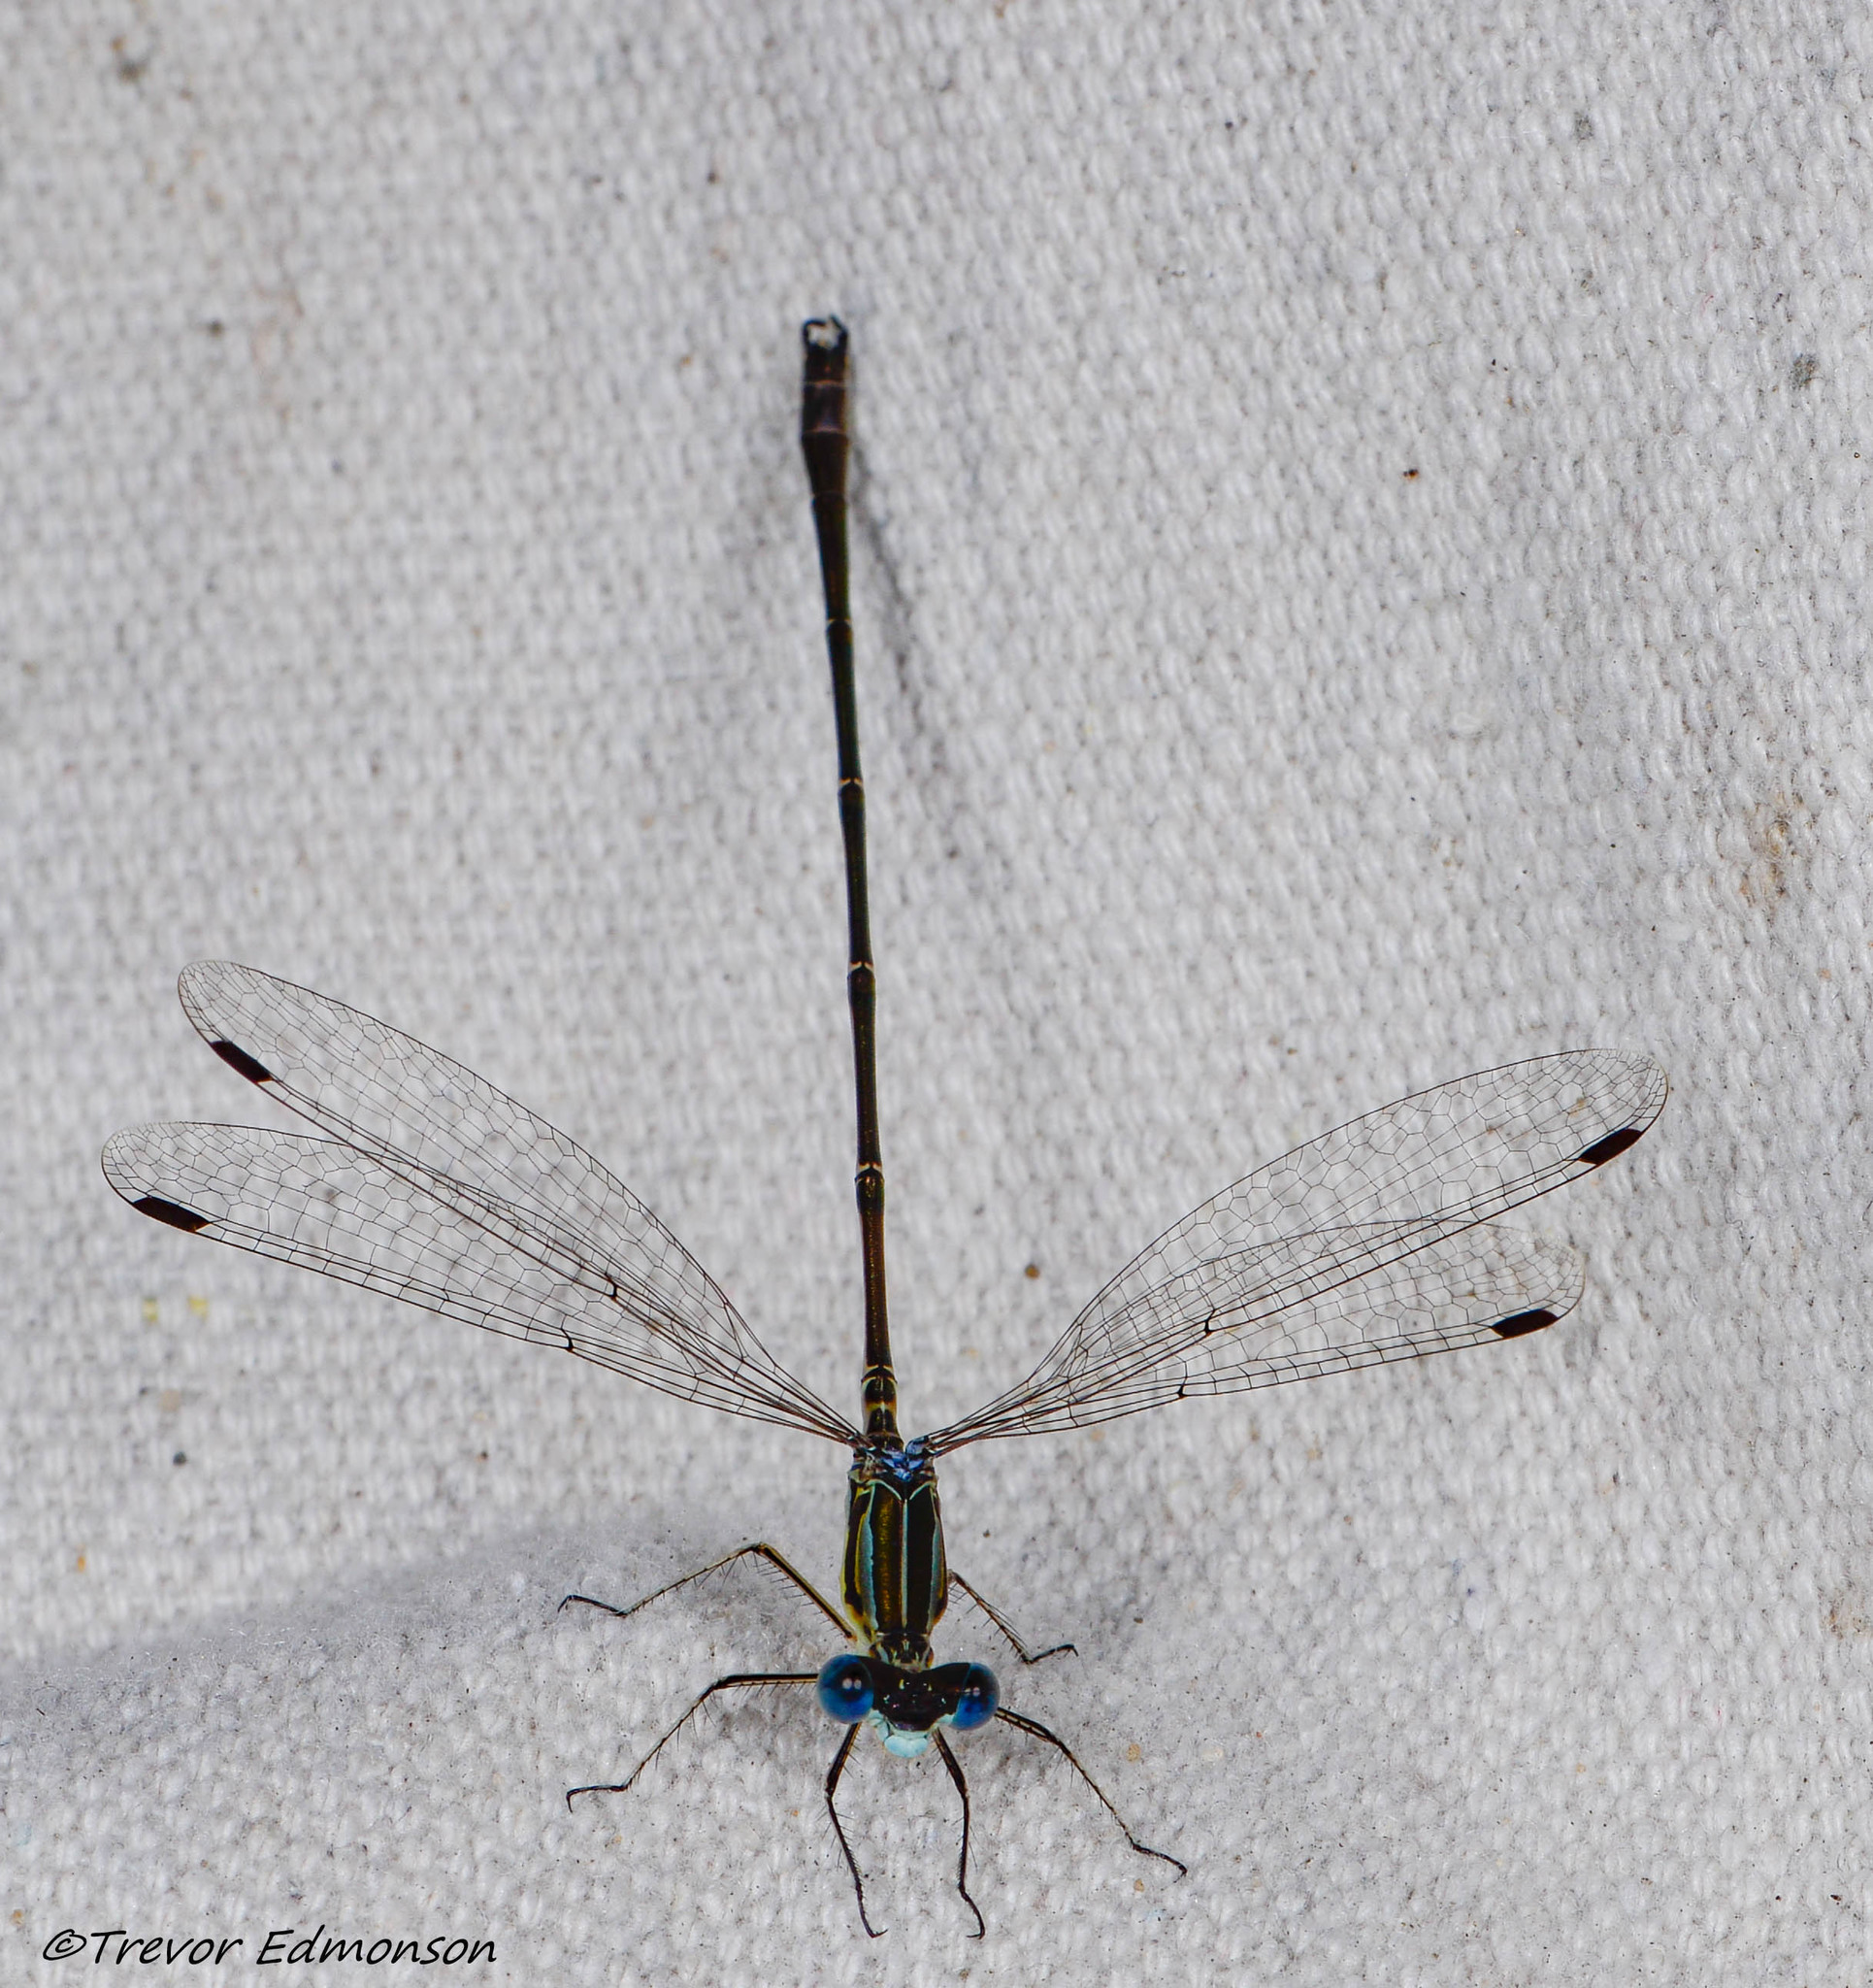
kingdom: Animalia
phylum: Arthropoda
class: Insecta
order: Odonata
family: Lestidae
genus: Lestes
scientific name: Lestes rectangularis
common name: Slender spreadwing
